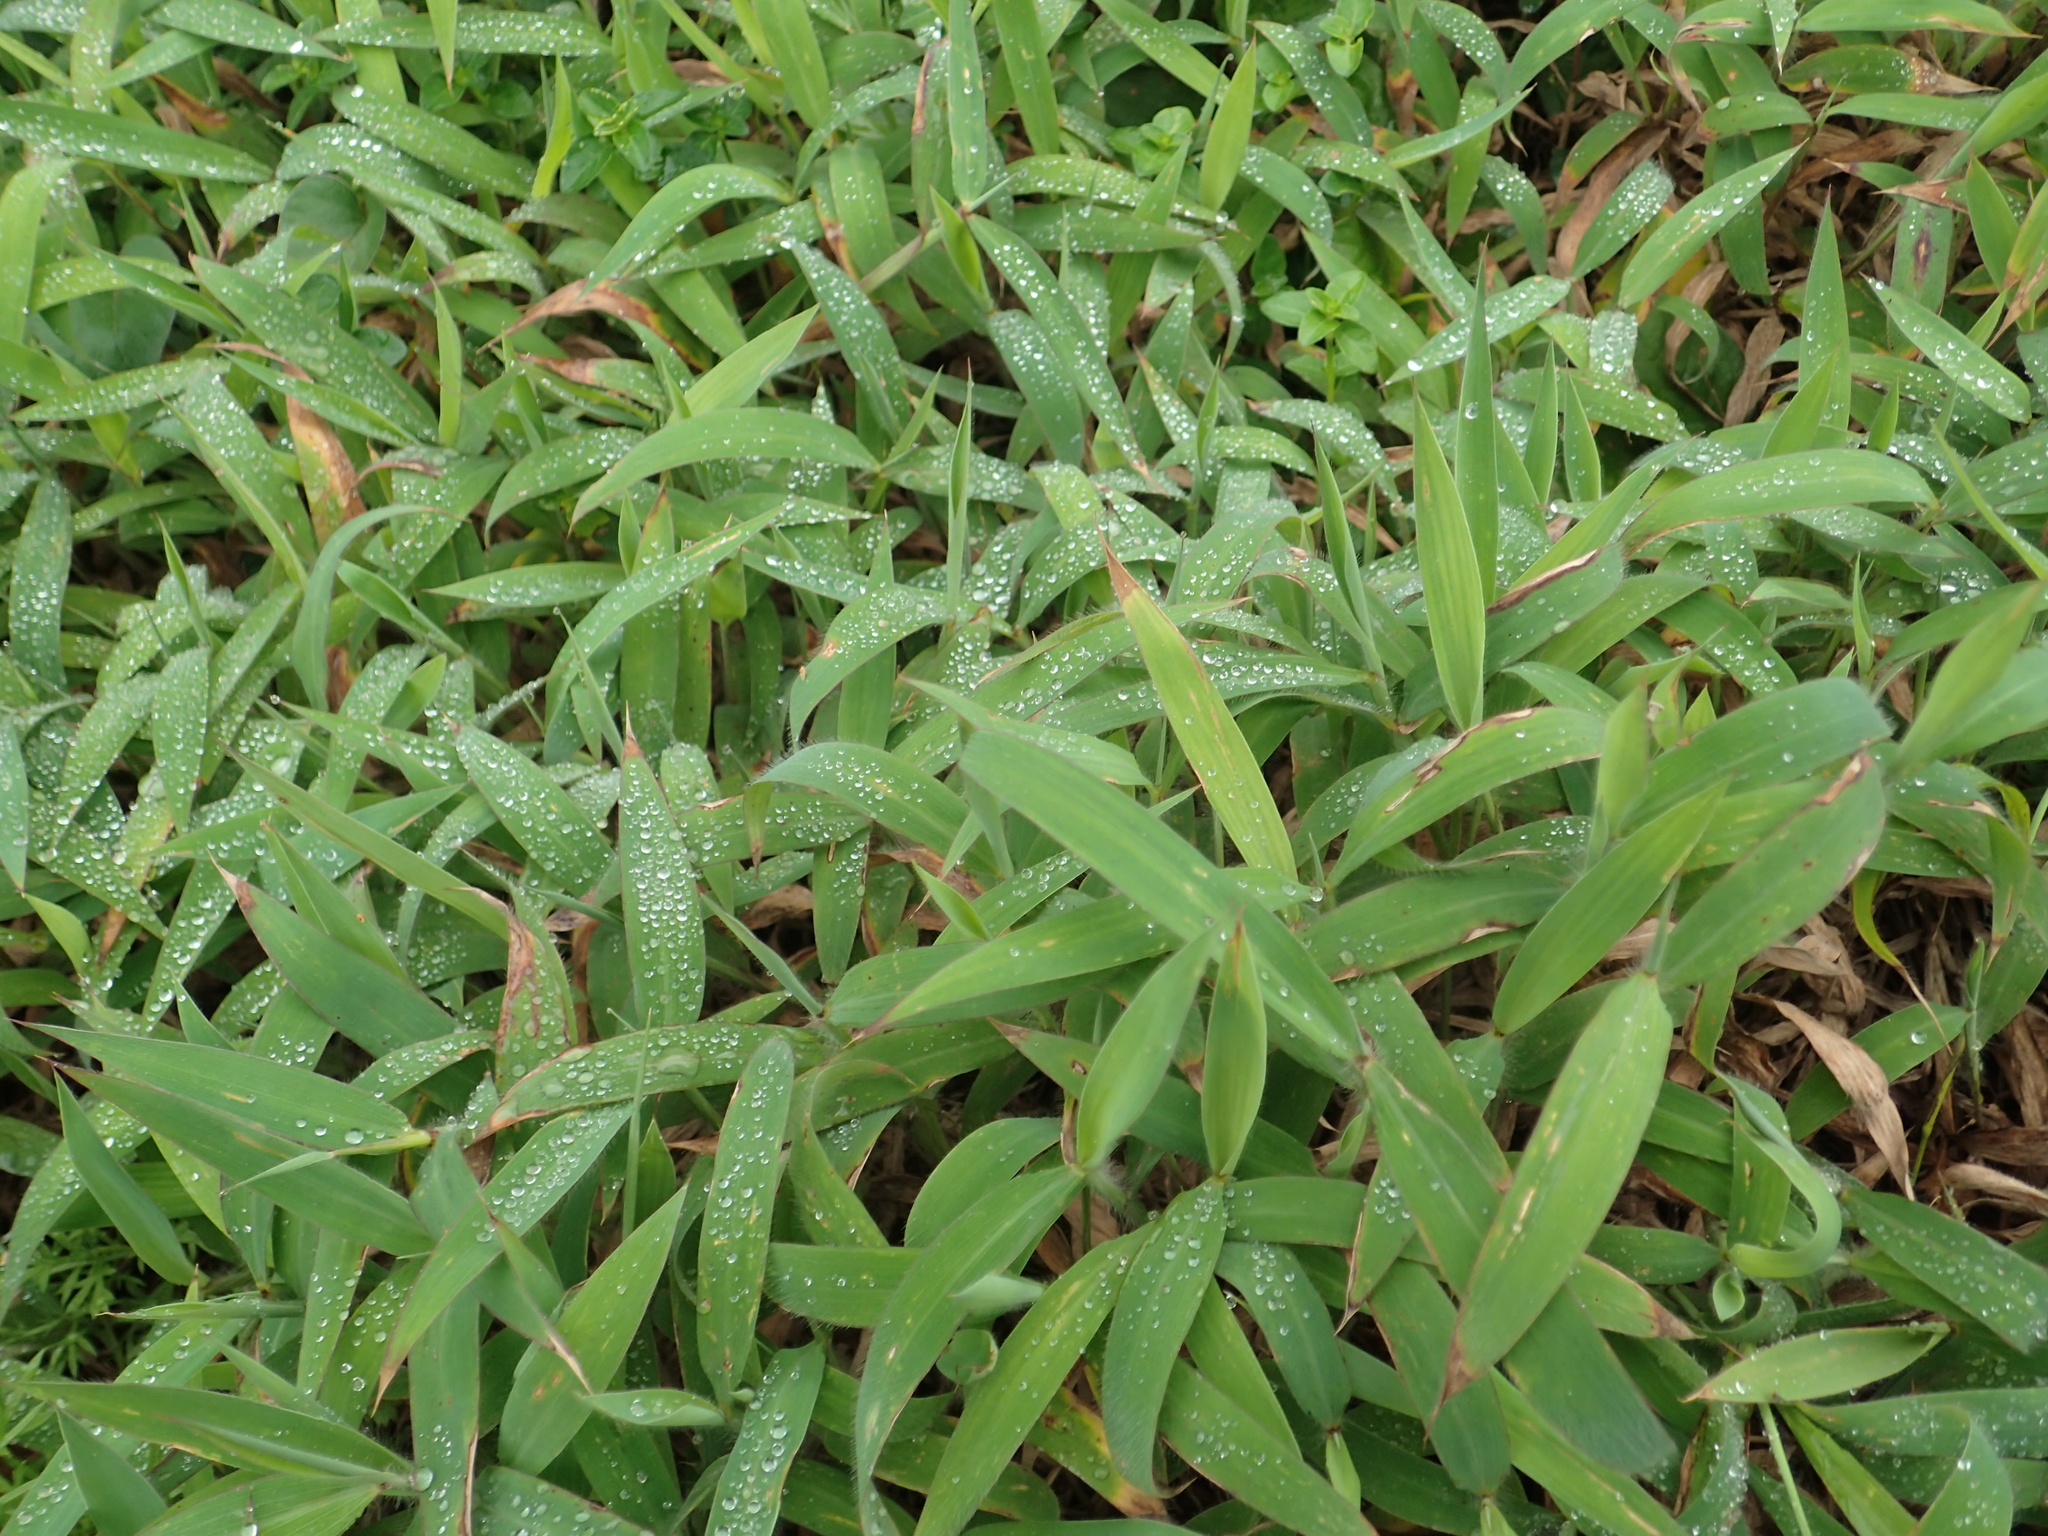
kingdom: Plantae
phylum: Tracheophyta
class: Liliopsida
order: Poales
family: Poaceae
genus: Ischaemum
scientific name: Ischaemum ciliare
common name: Grass
